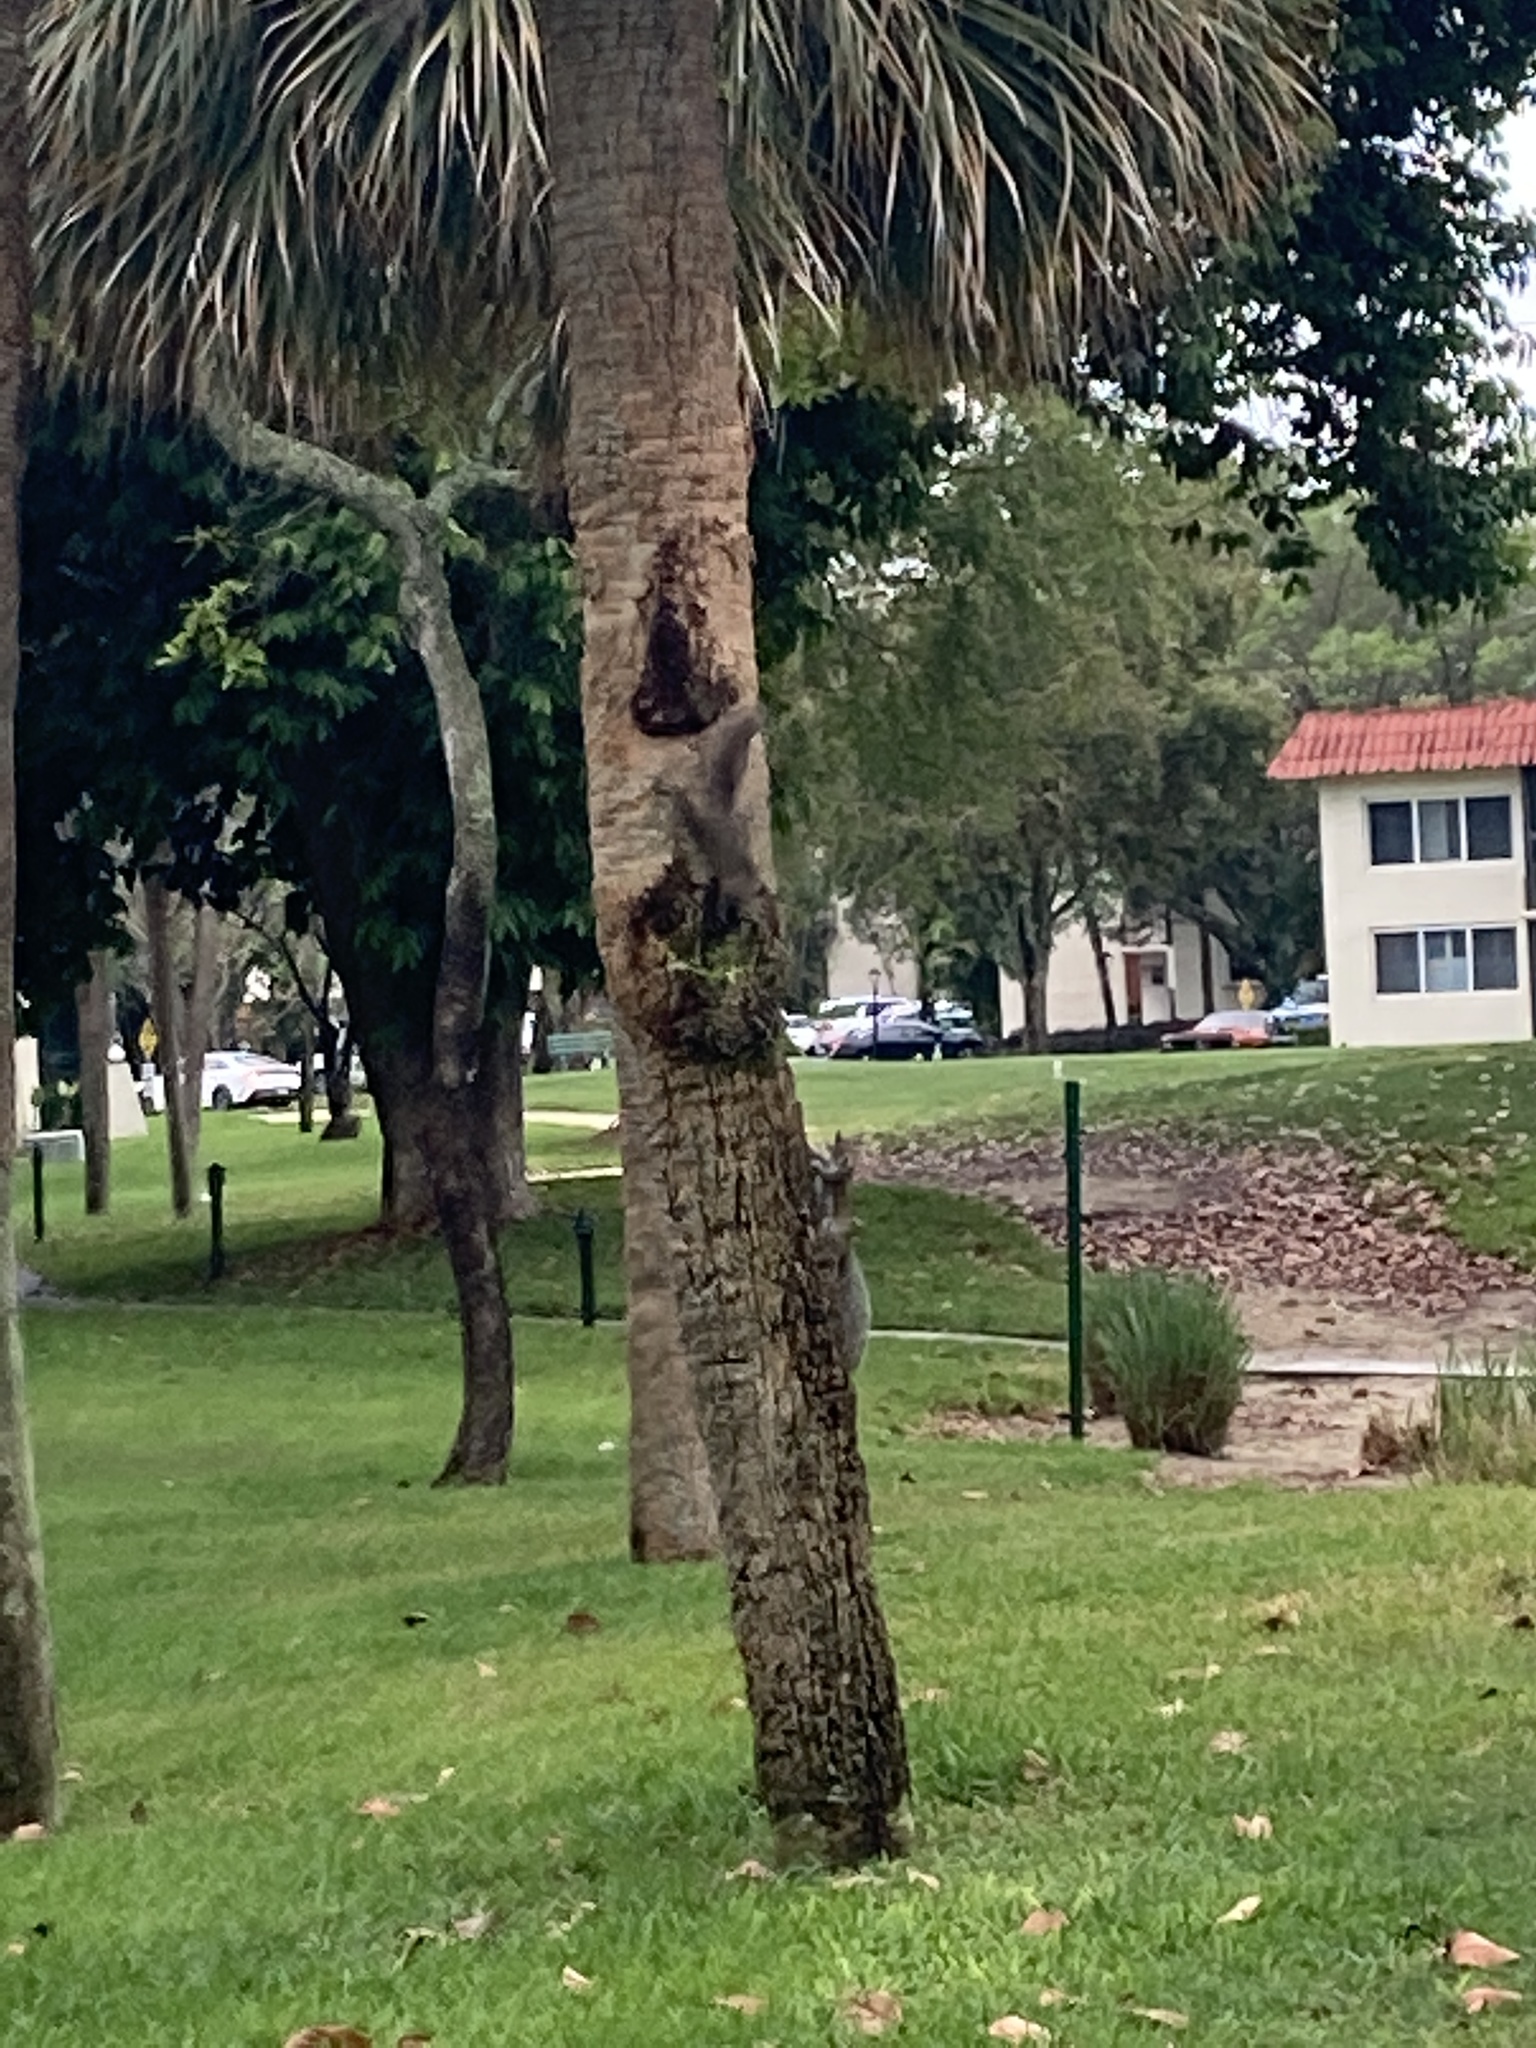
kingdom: Animalia
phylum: Chordata
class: Mammalia
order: Rodentia
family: Sciuridae
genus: Sciurus
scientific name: Sciurus carolinensis
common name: Eastern gray squirrel
